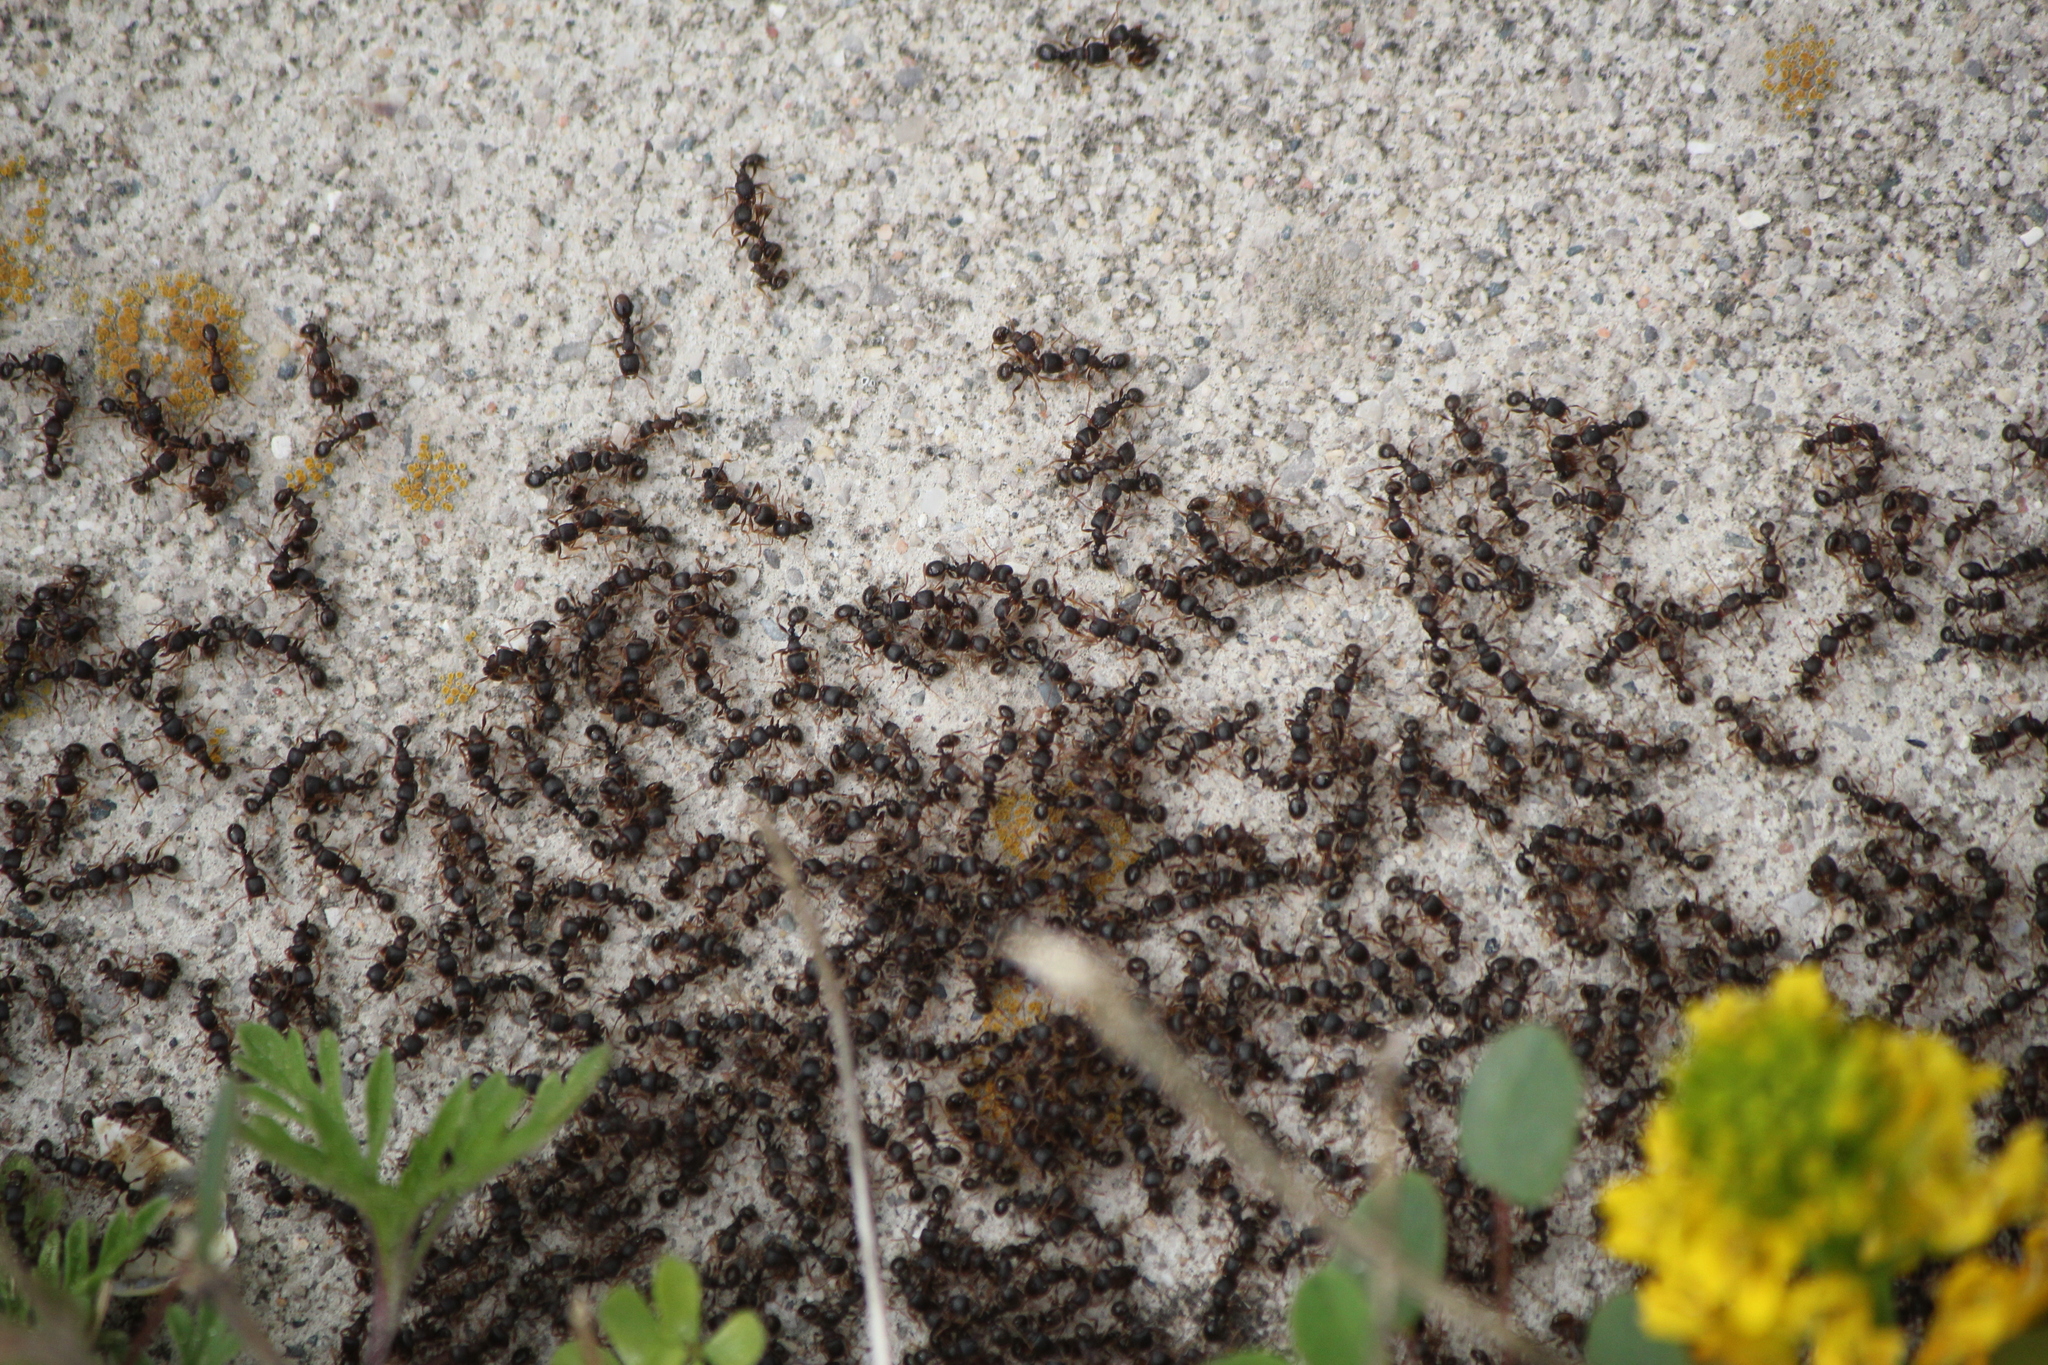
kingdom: Animalia
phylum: Arthropoda
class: Insecta
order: Hymenoptera
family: Formicidae
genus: Tetramorium
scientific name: Tetramorium immigrans
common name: Pavement ant
